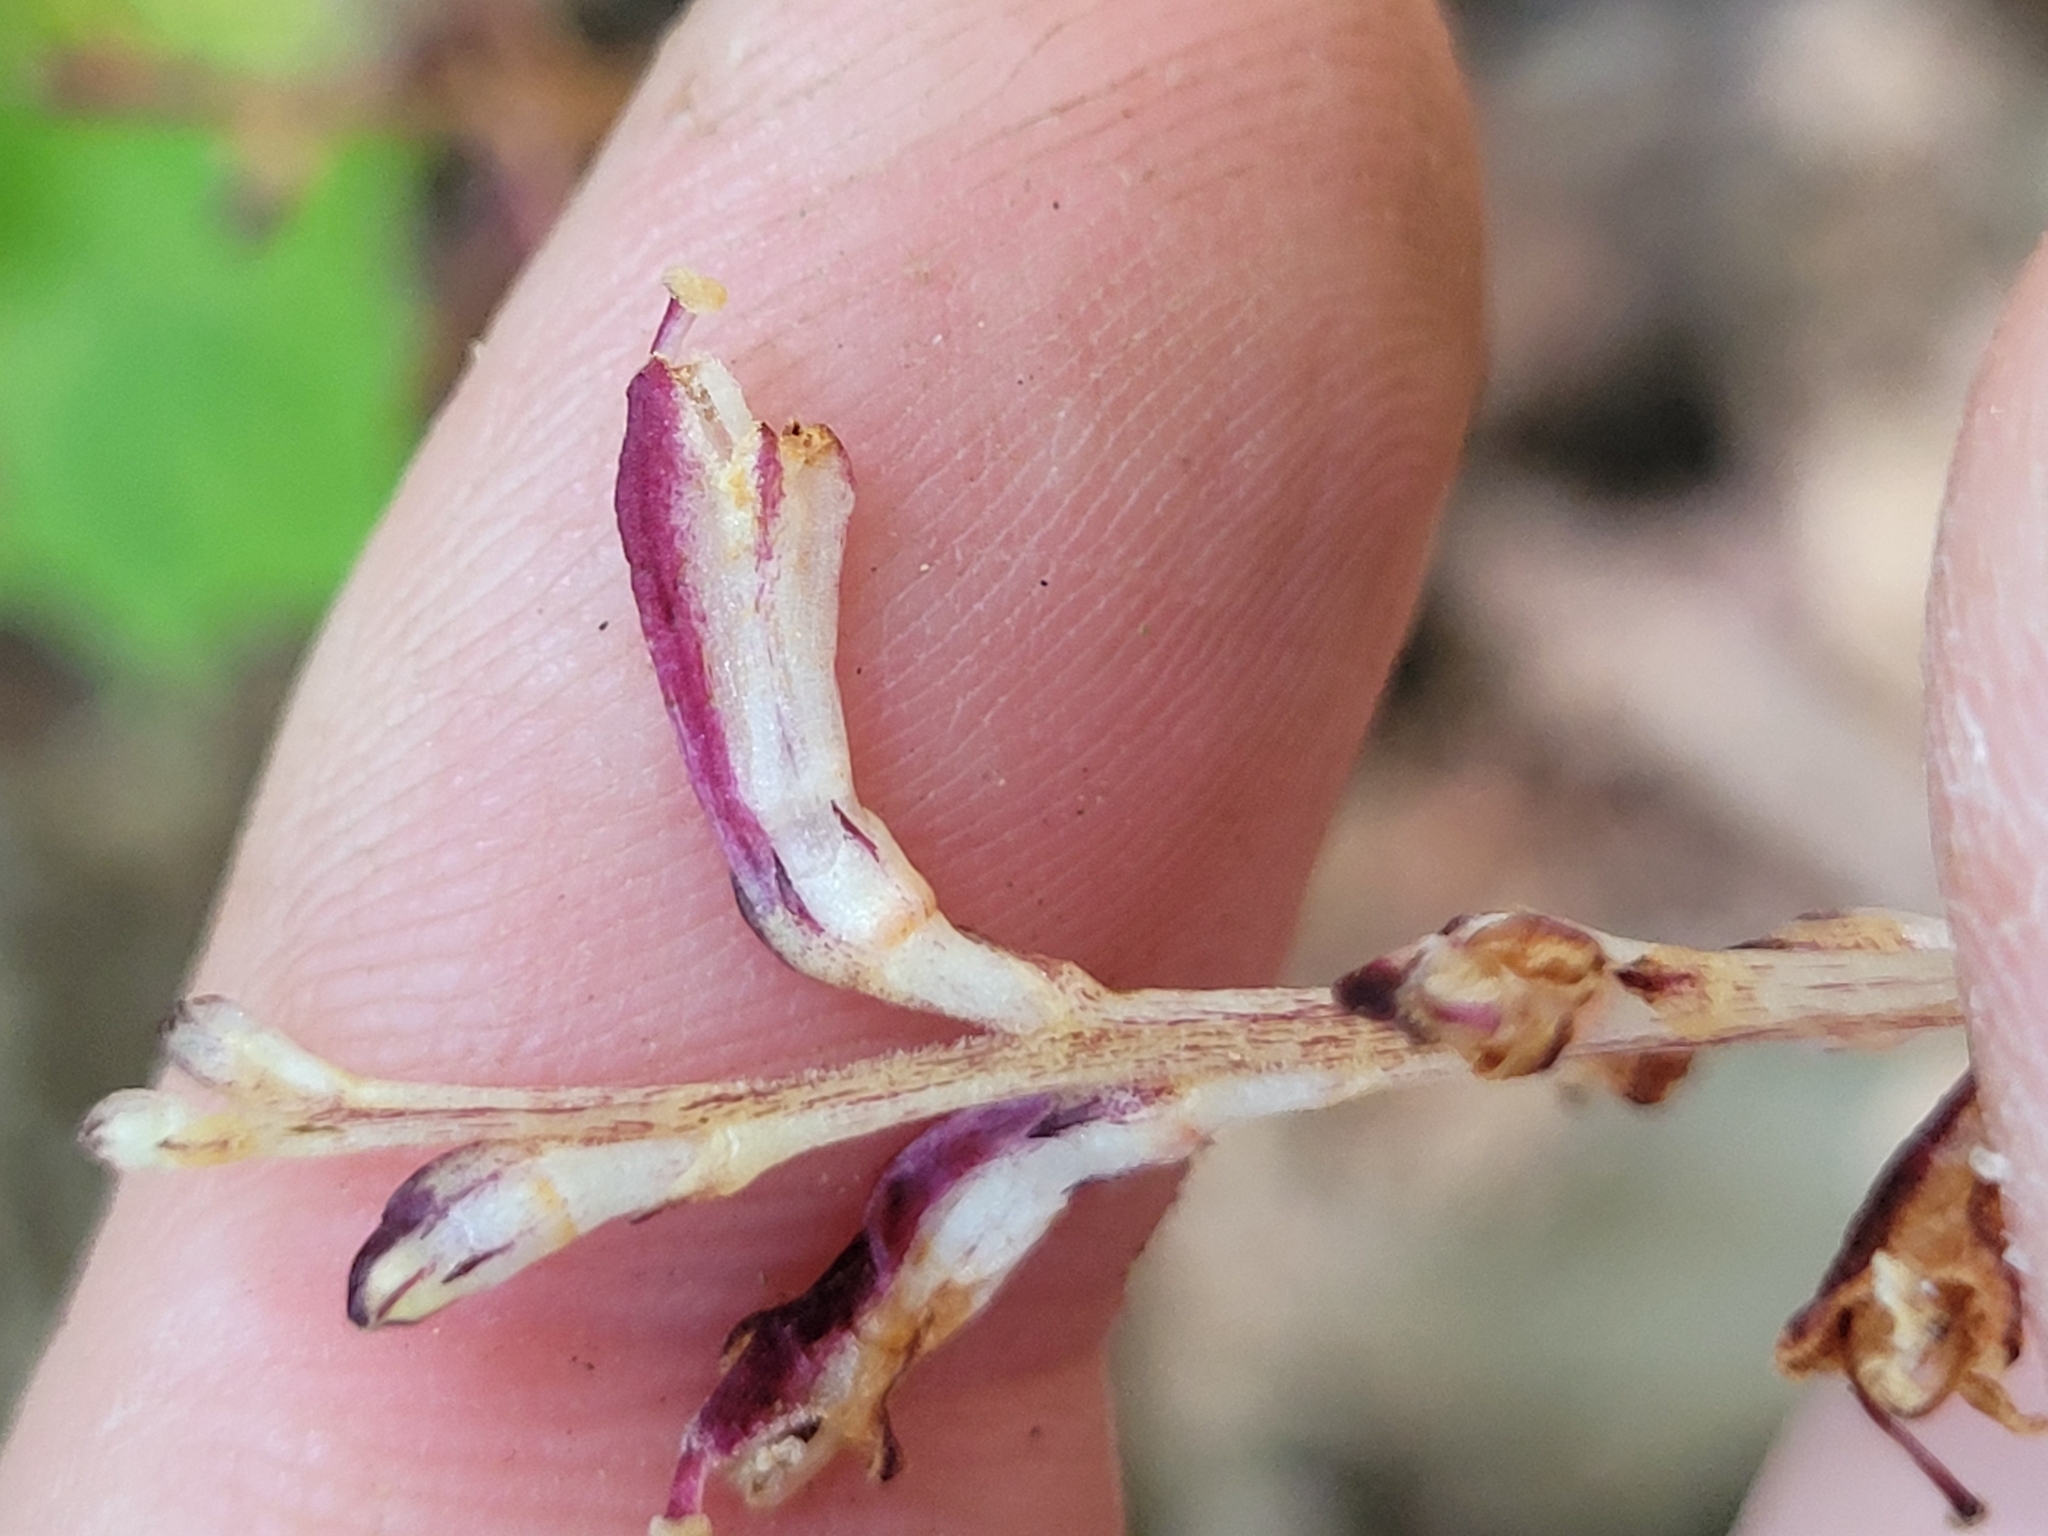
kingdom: Plantae
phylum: Tracheophyta
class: Magnoliopsida
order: Lamiales
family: Orobanchaceae
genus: Epifagus
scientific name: Epifagus virginiana
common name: Beechdrops
